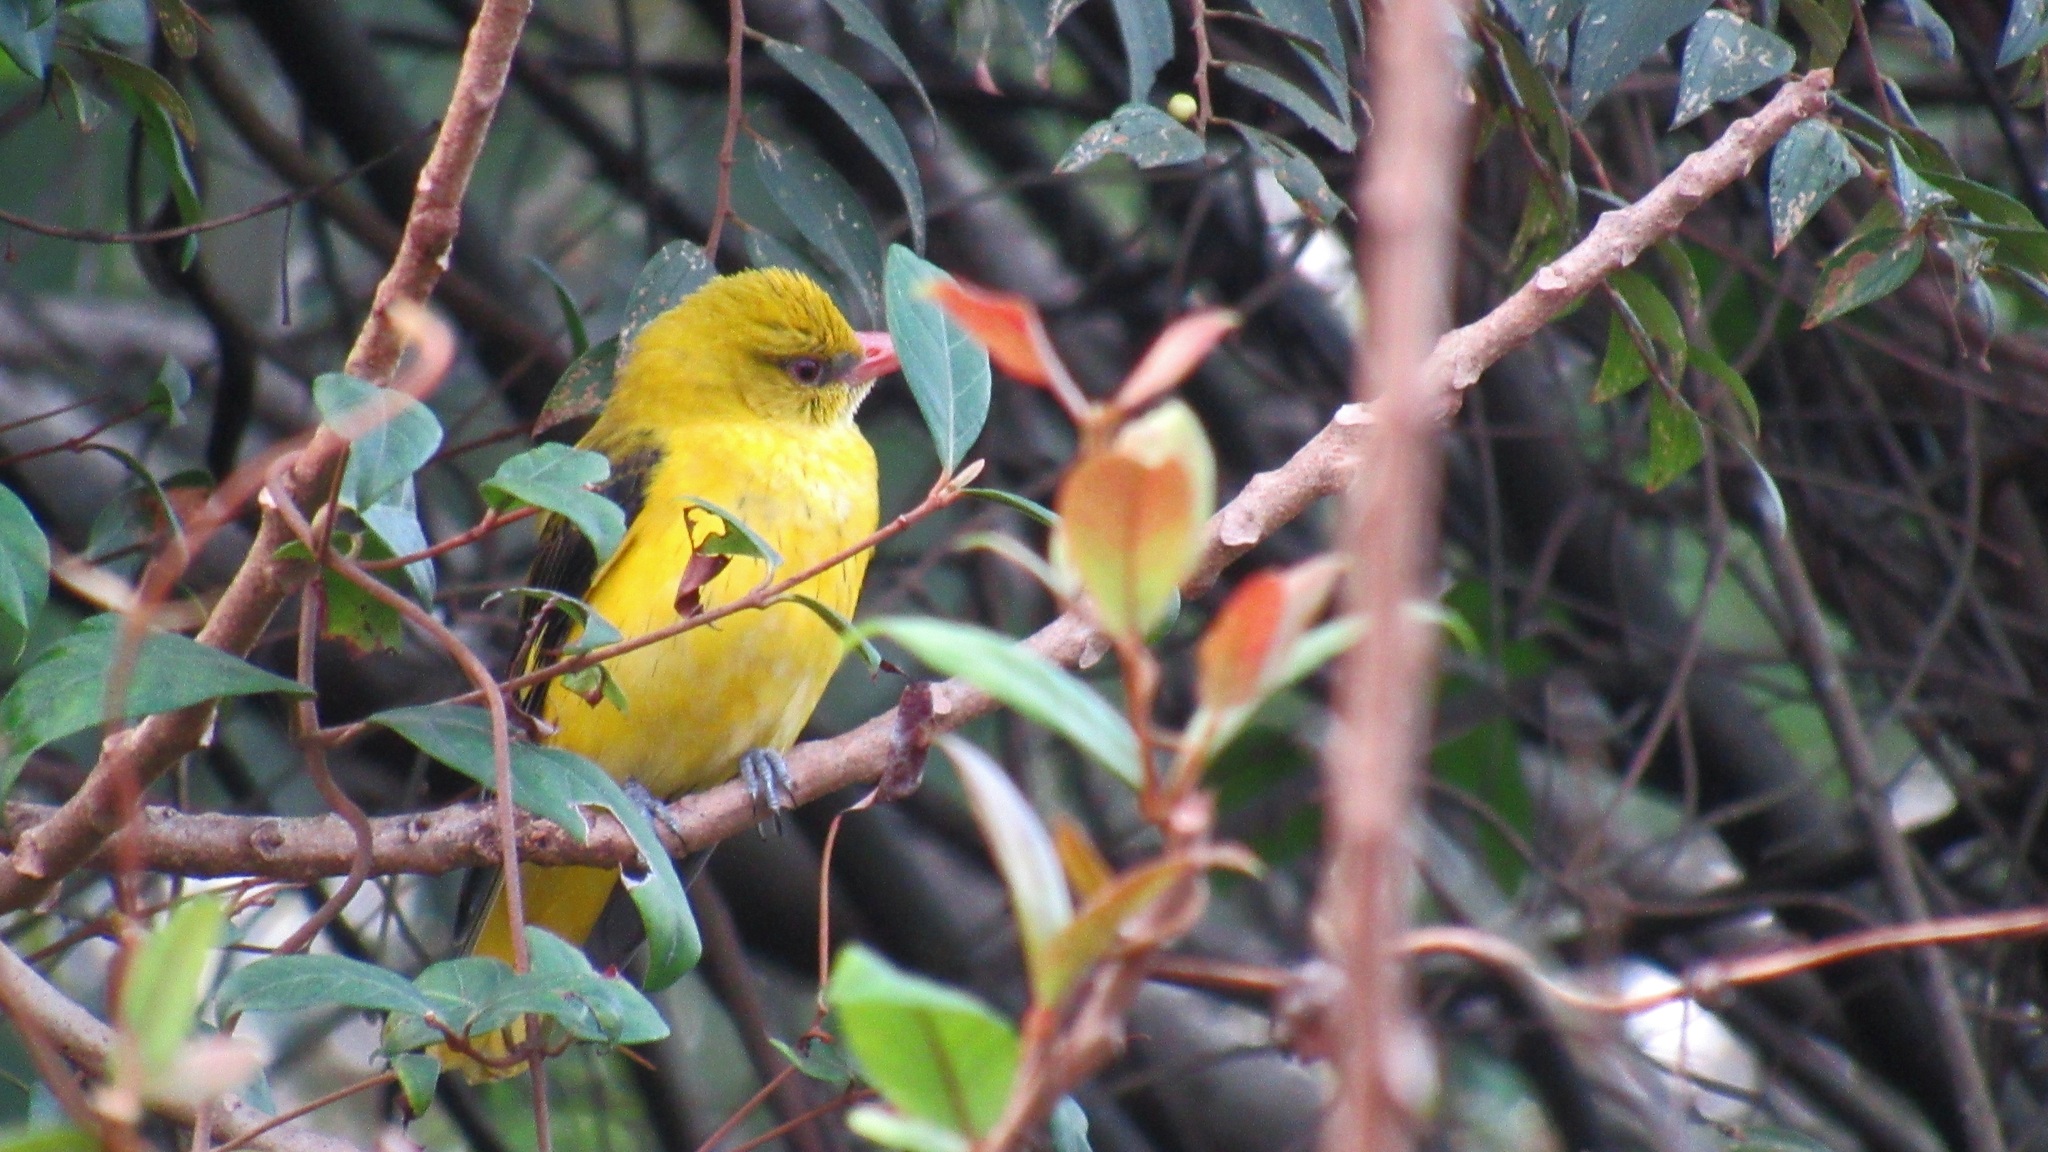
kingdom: Animalia
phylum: Chordata
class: Aves
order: Passeriformes
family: Oriolidae
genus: Oriolus
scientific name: Oriolus kundoo
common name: Indian golden oriole
